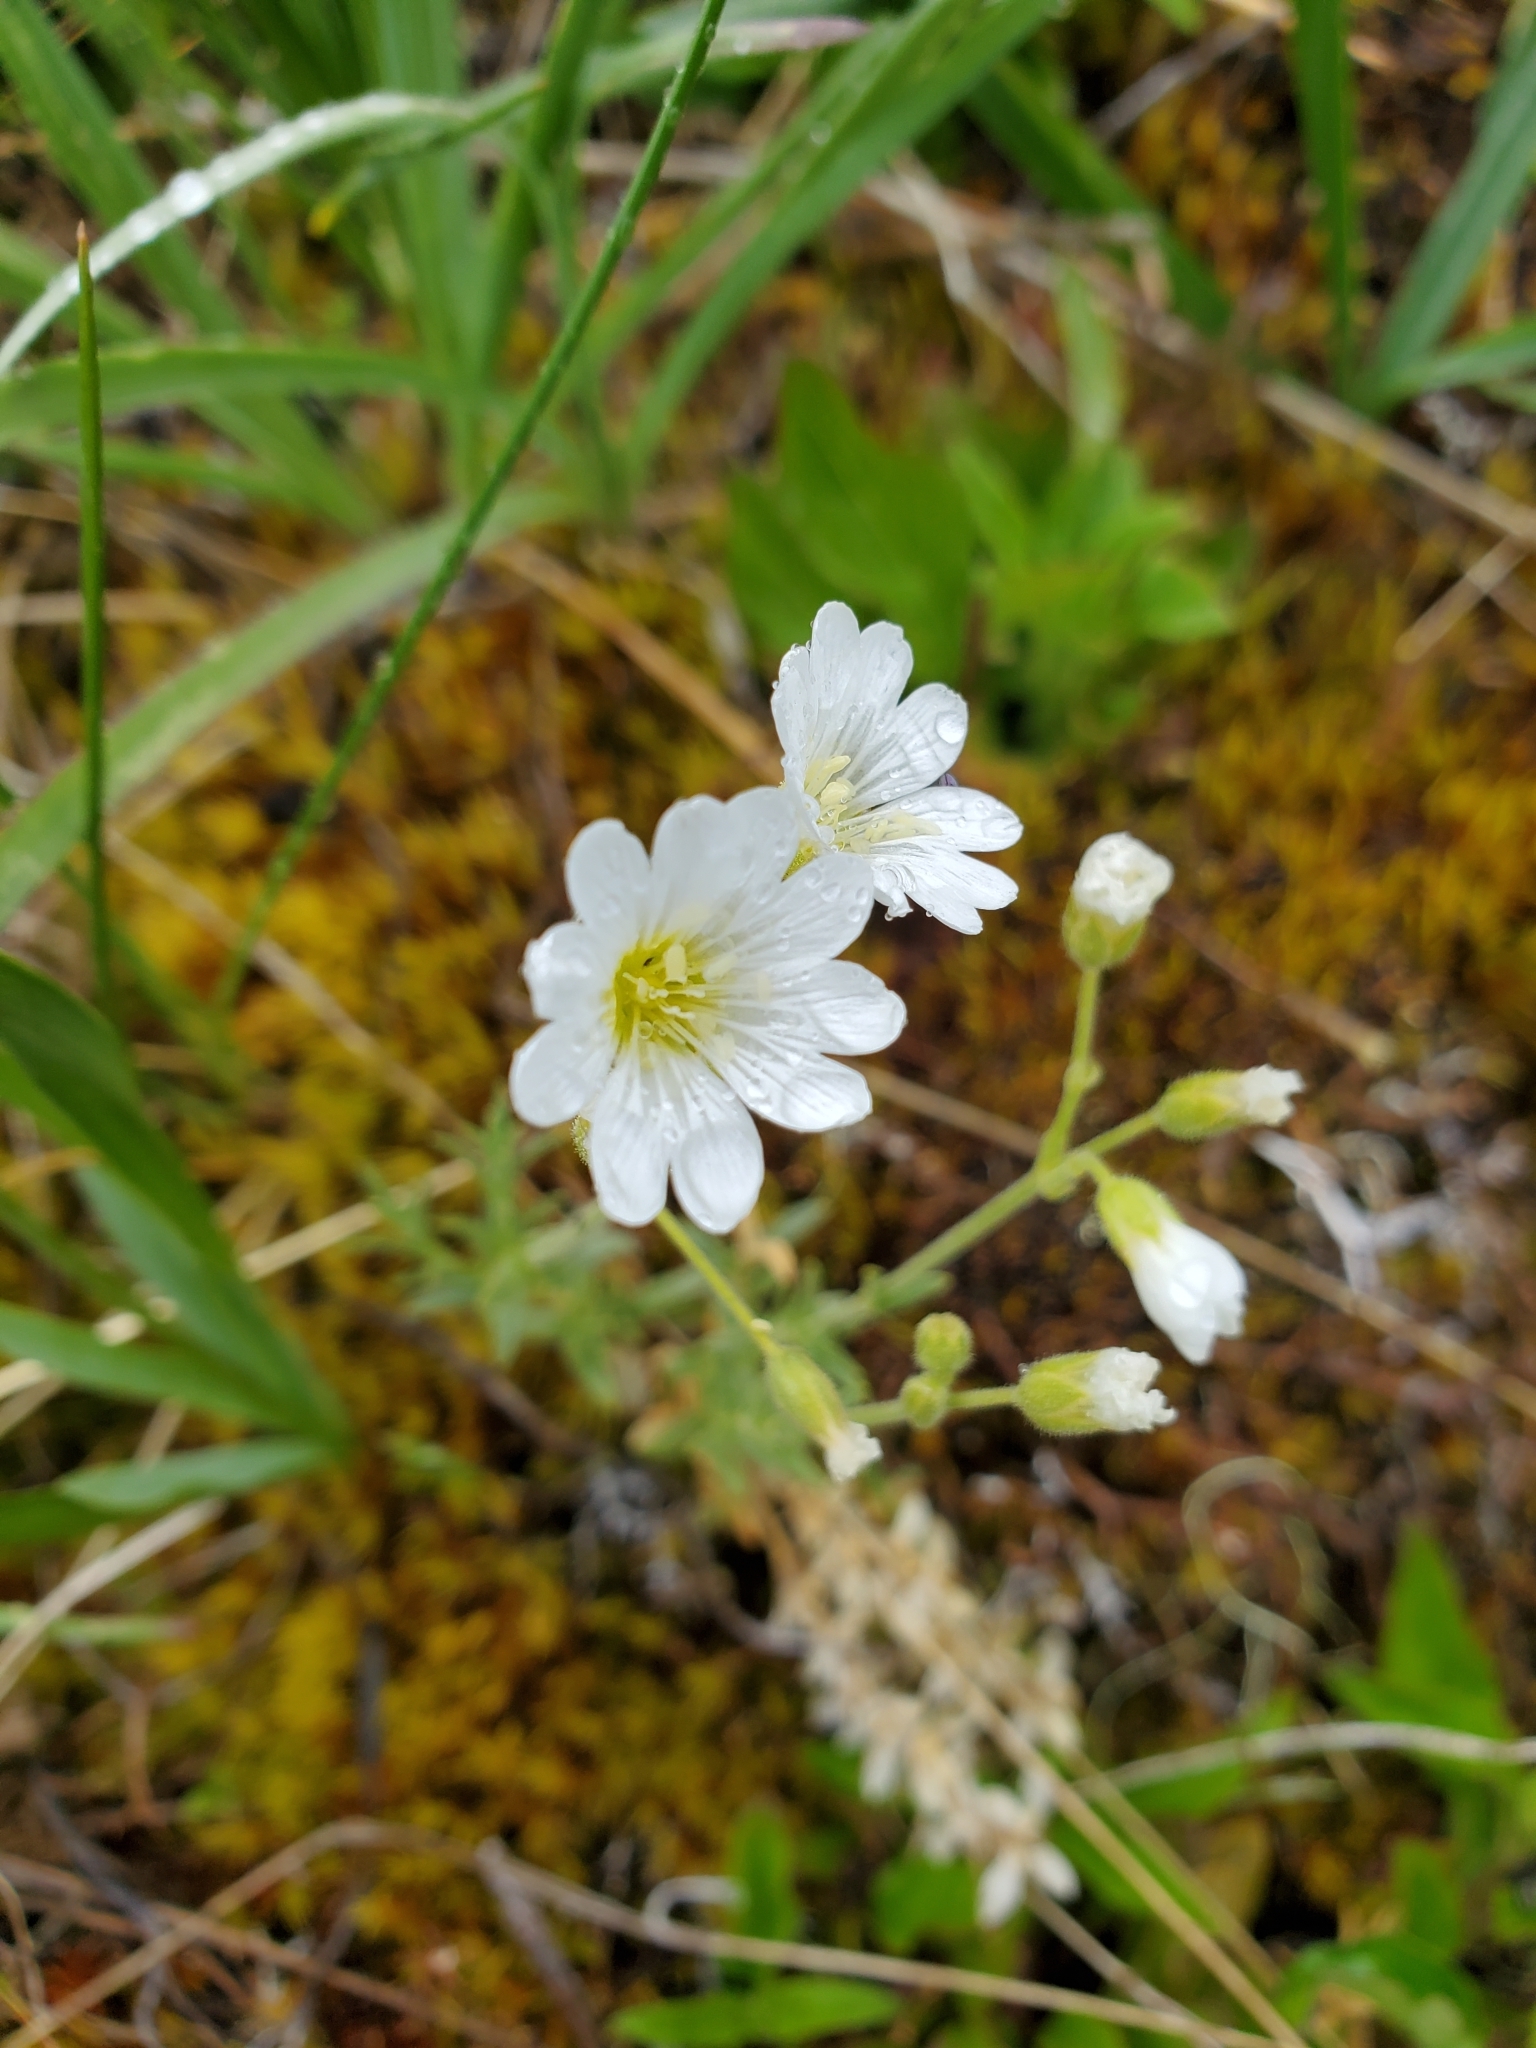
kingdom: Plantae
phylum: Tracheophyta
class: Magnoliopsida
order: Caryophyllales
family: Caryophyllaceae
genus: Cerastium
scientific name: Cerastium arvense
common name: Field mouse-ear
